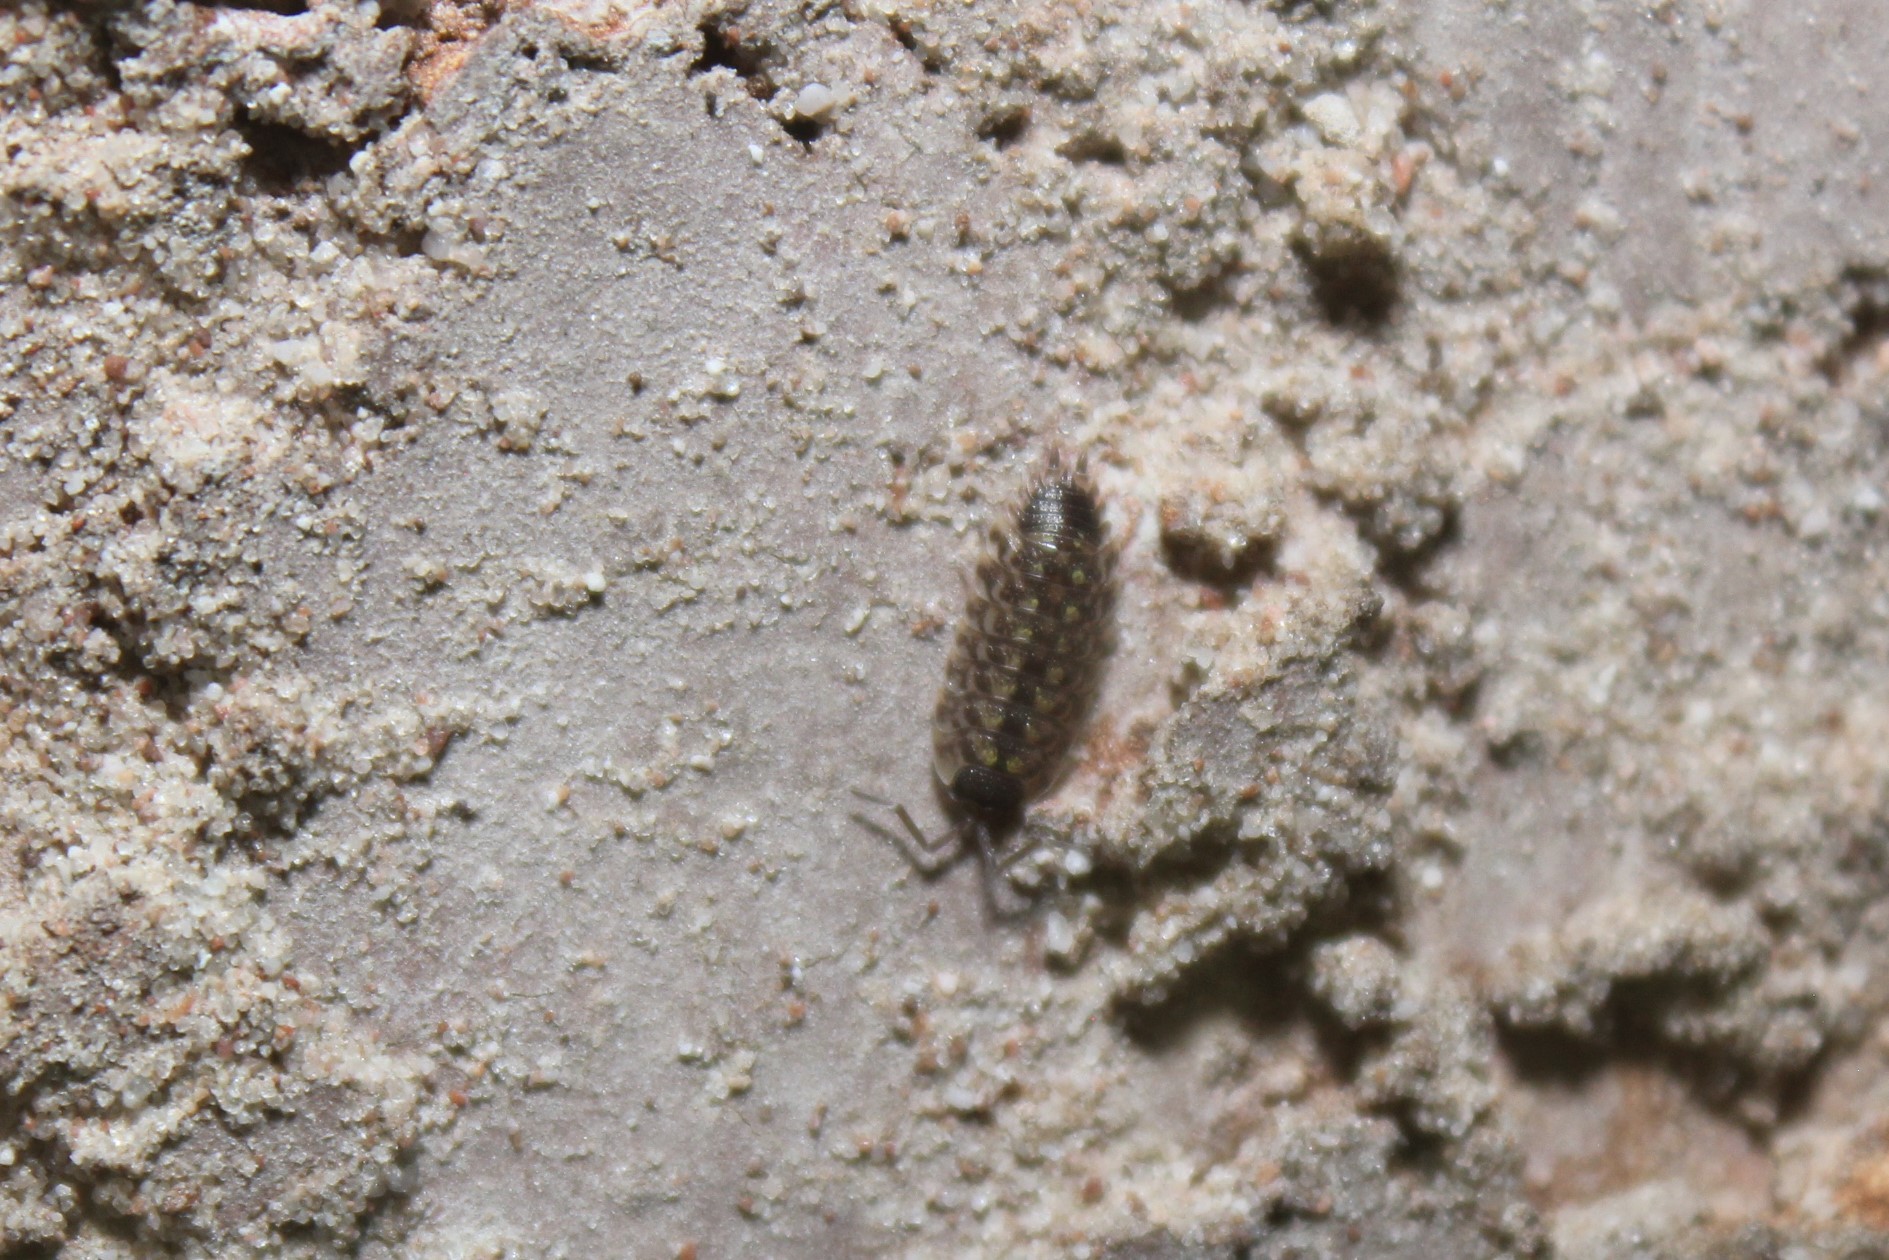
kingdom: Animalia
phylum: Arthropoda
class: Malacostraca
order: Isopoda
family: Porcellionidae
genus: Porcellio
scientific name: Porcellio spinicornis
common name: Painted woodlouse
